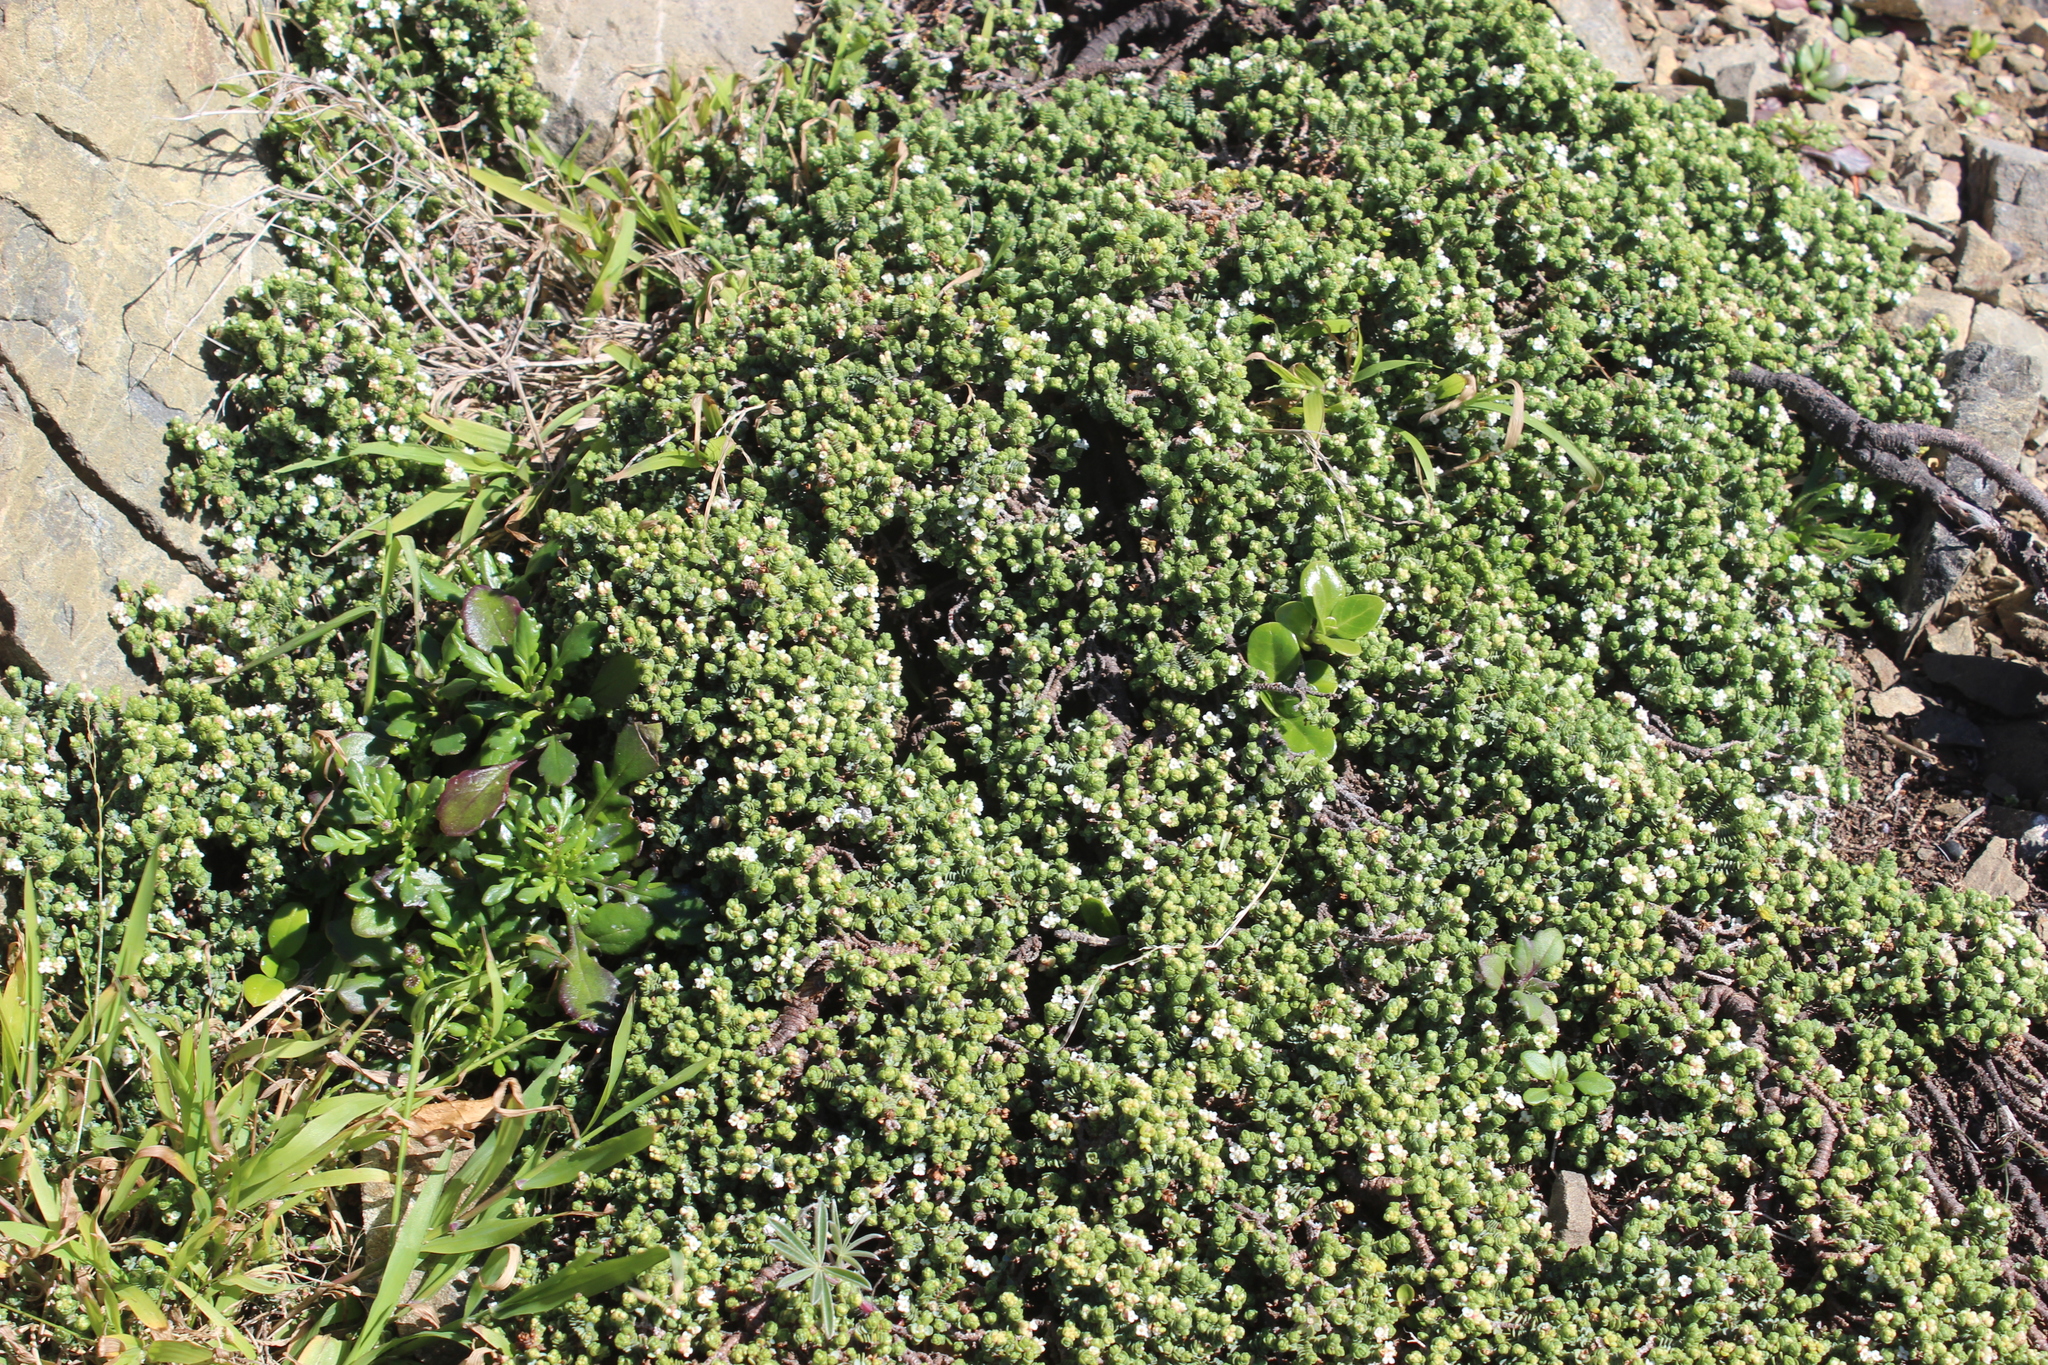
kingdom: Plantae
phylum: Tracheophyta
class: Magnoliopsida
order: Malvales
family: Thymelaeaceae
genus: Pimelea
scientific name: Pimelea carnosa
